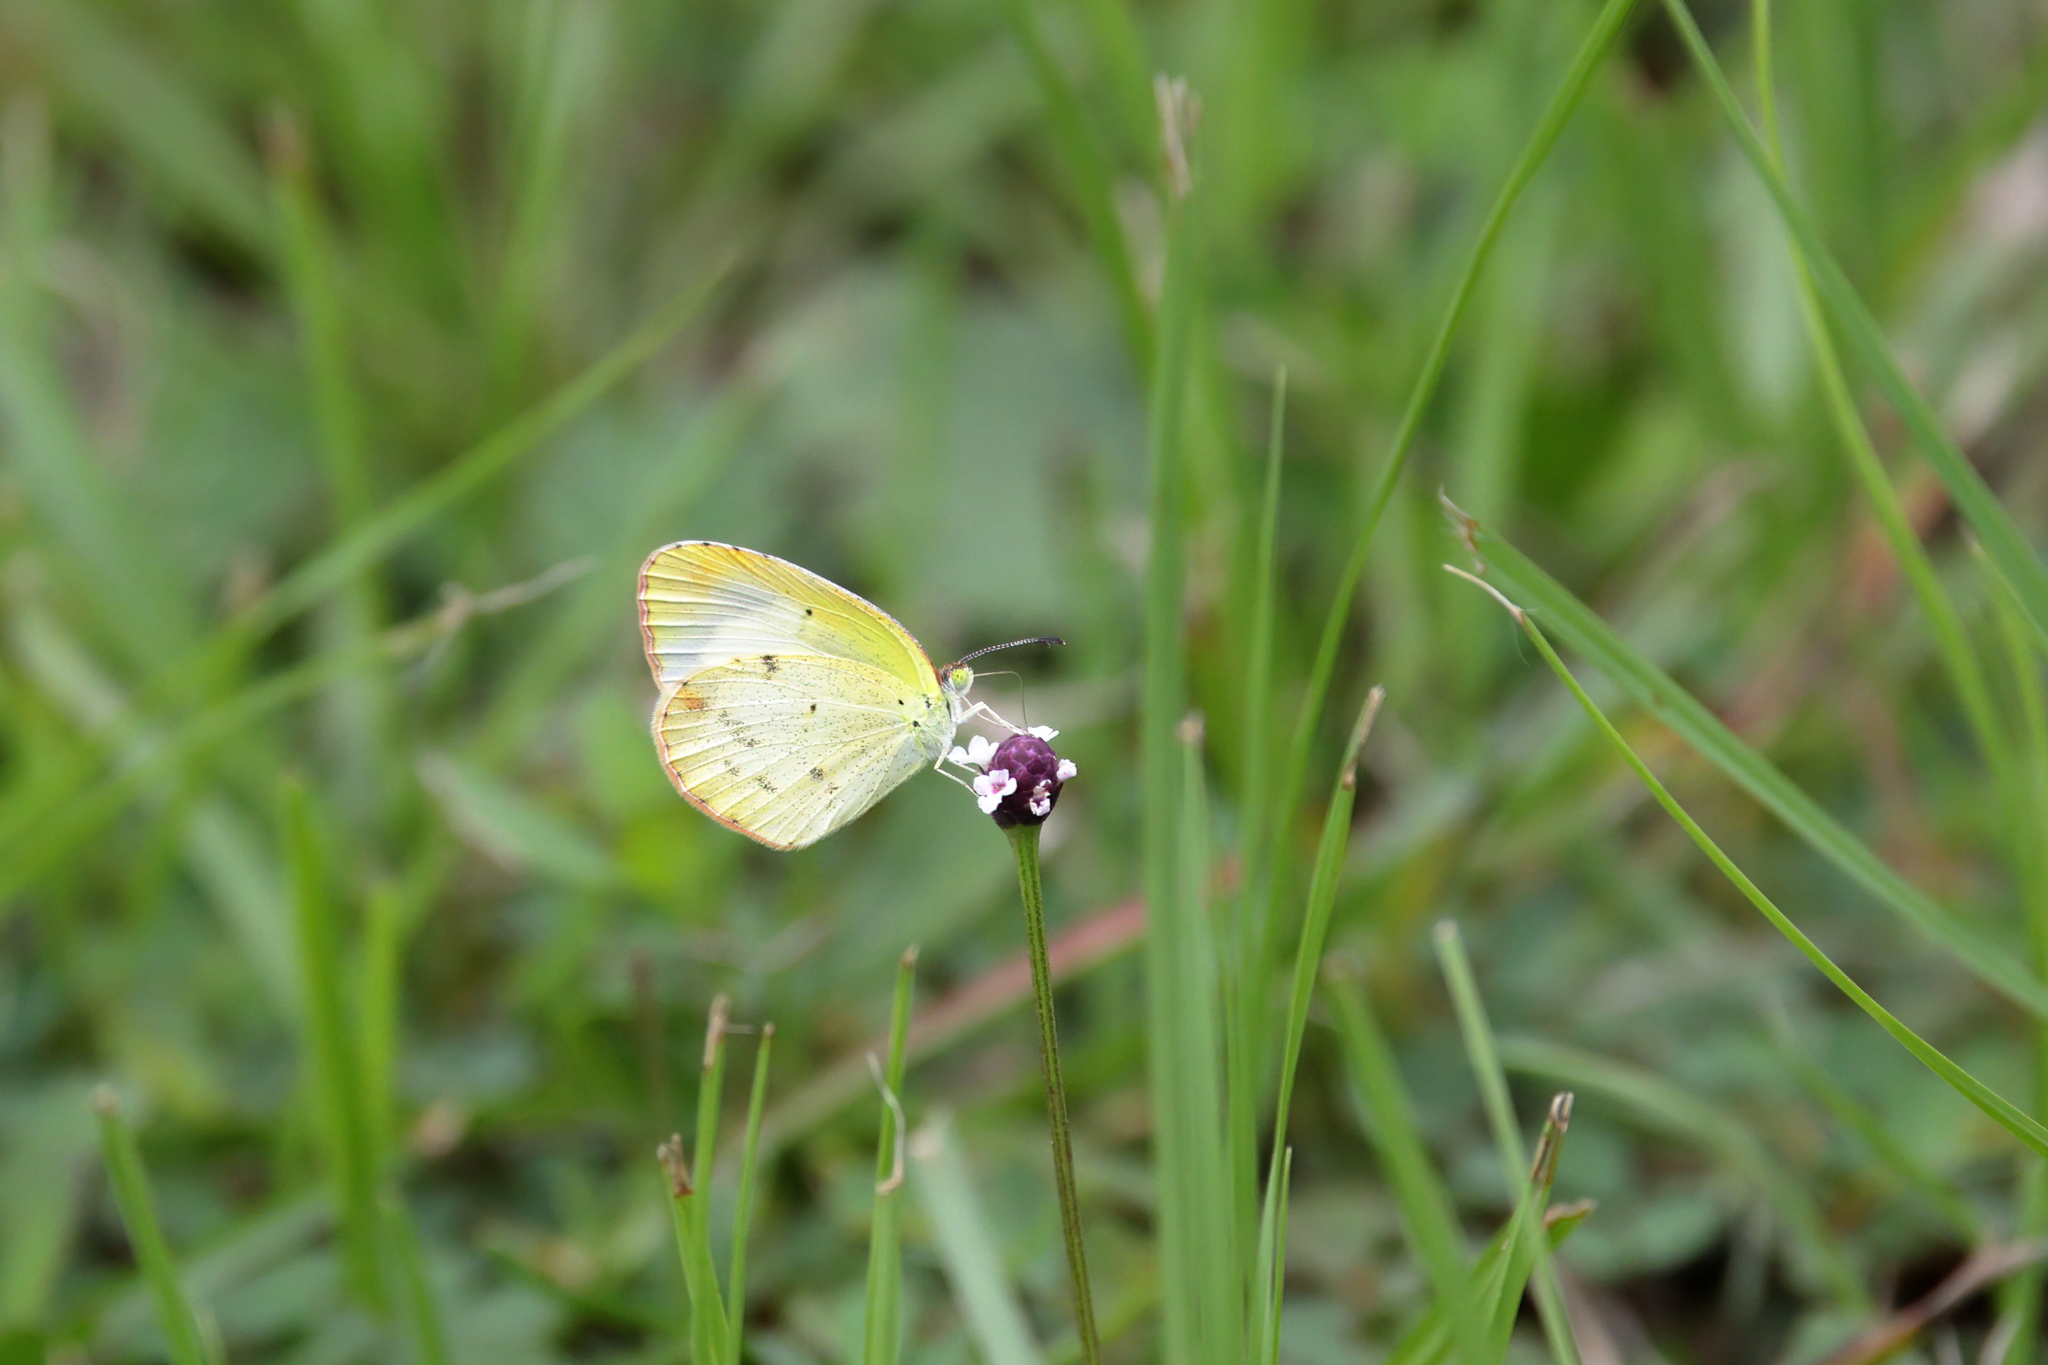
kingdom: Animalia
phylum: Arthropoda
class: Insecta
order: Lepidoptera
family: Pieridae
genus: Pyrisitia
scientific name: Pyrisitia lisa
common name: Little yellow
